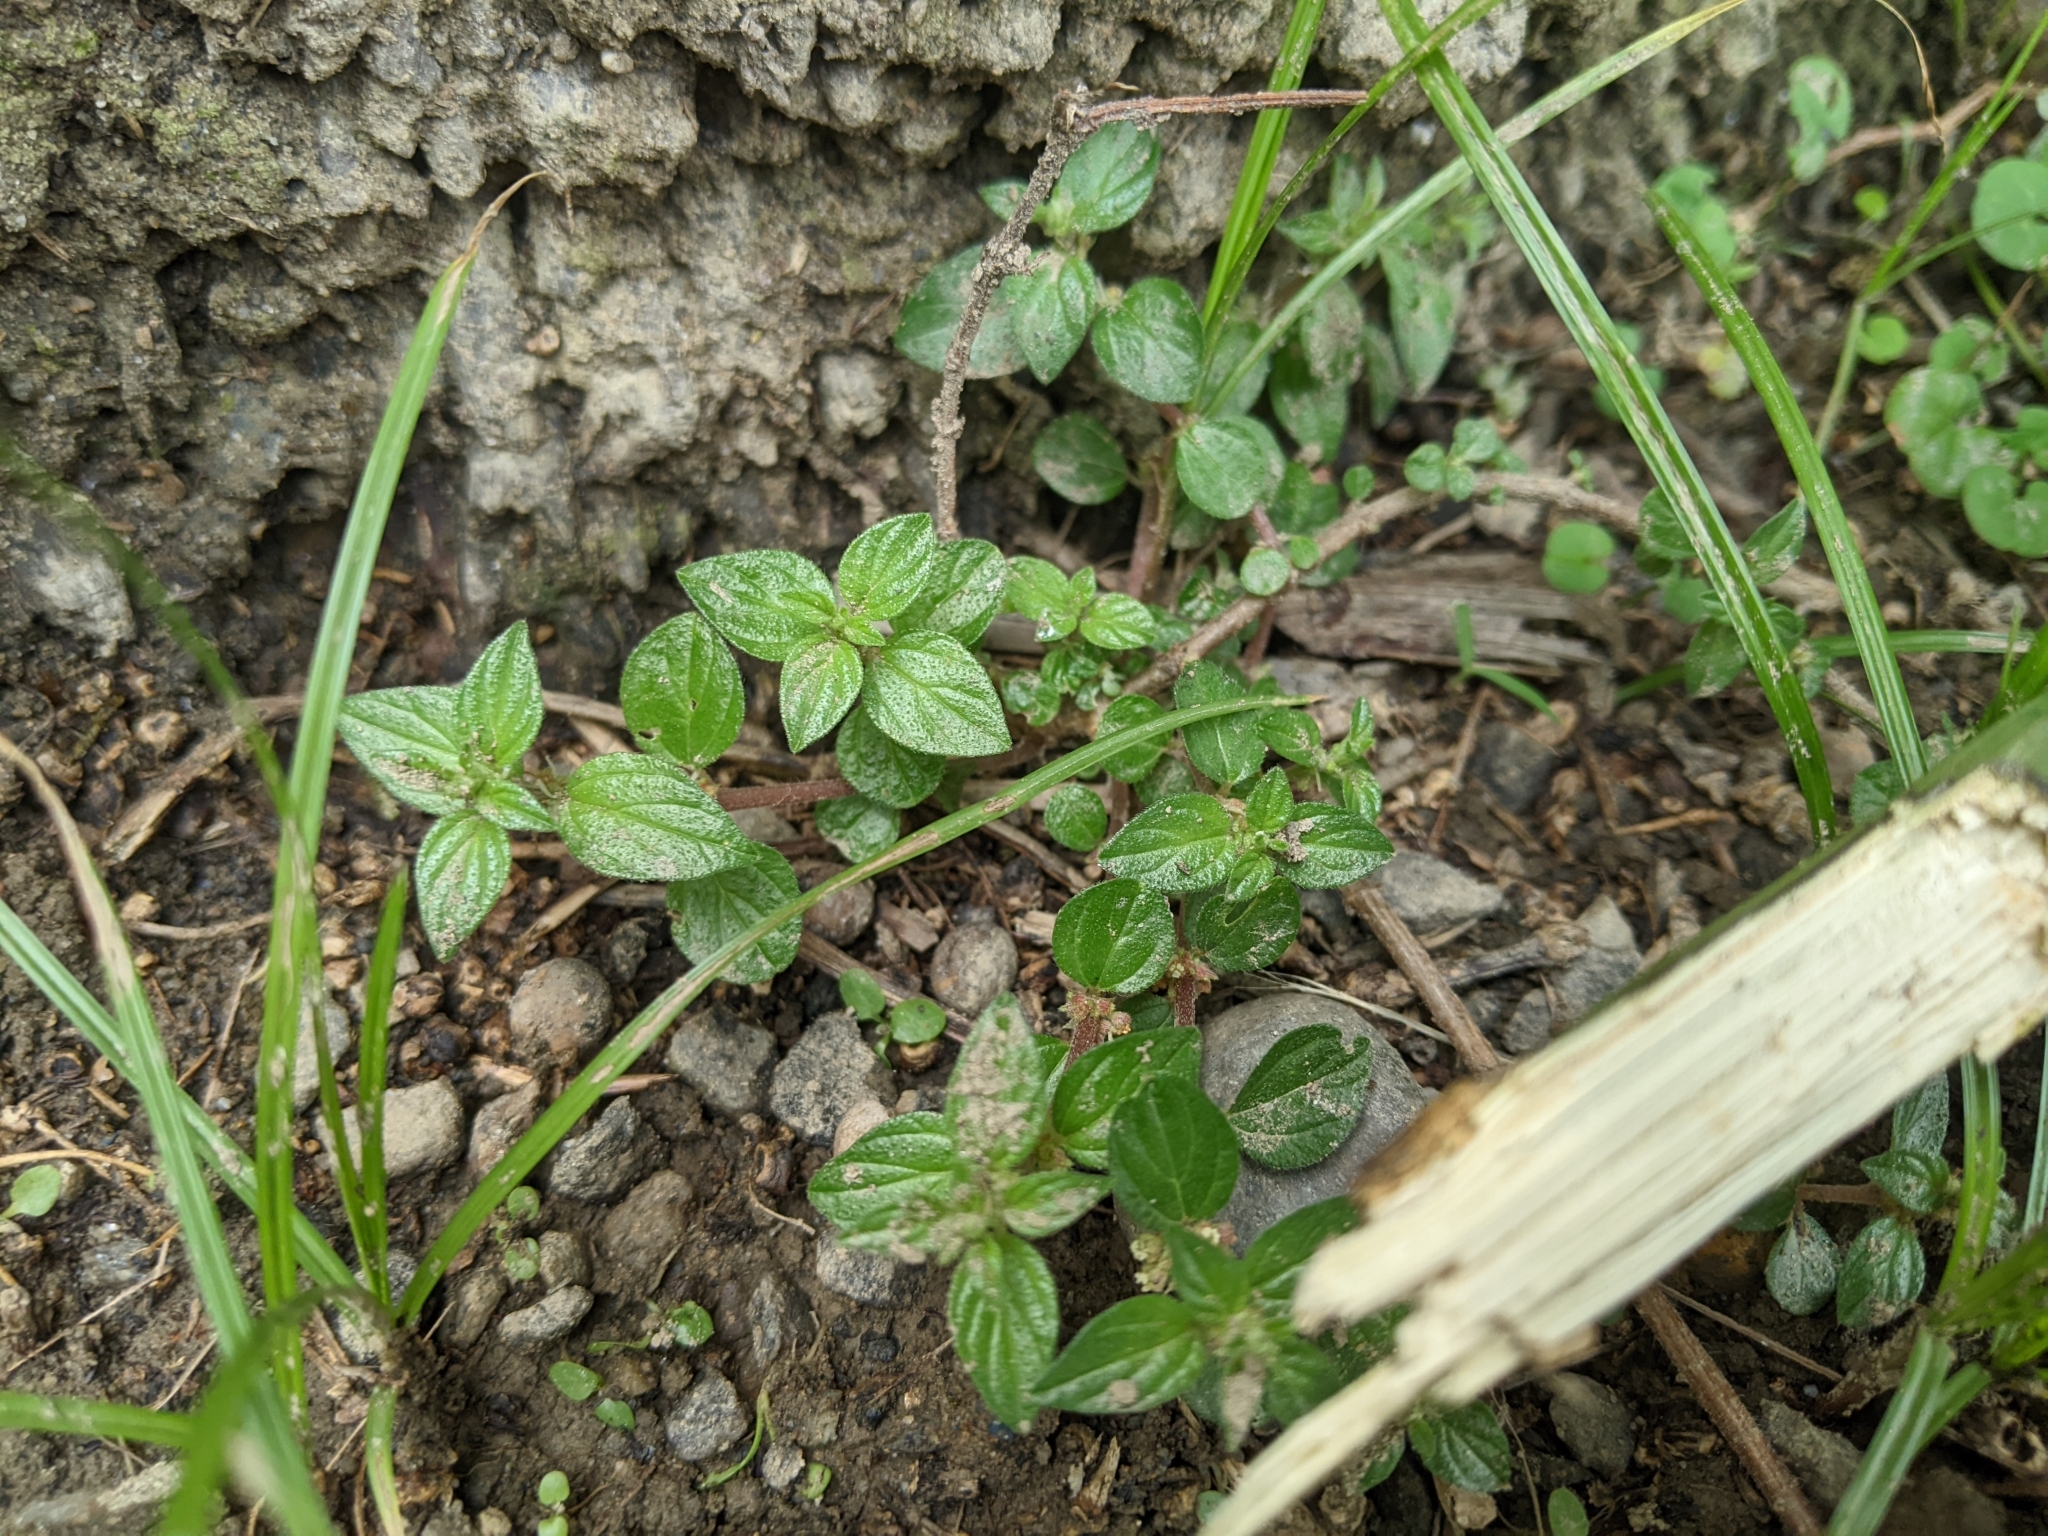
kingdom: Plantae
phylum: Tracheophyta
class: Magnoliopsida
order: Rosales
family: Urticaceae
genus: Pouzolzia
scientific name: Pouzolzia zeylanica
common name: Graceful pouzolzsbush
